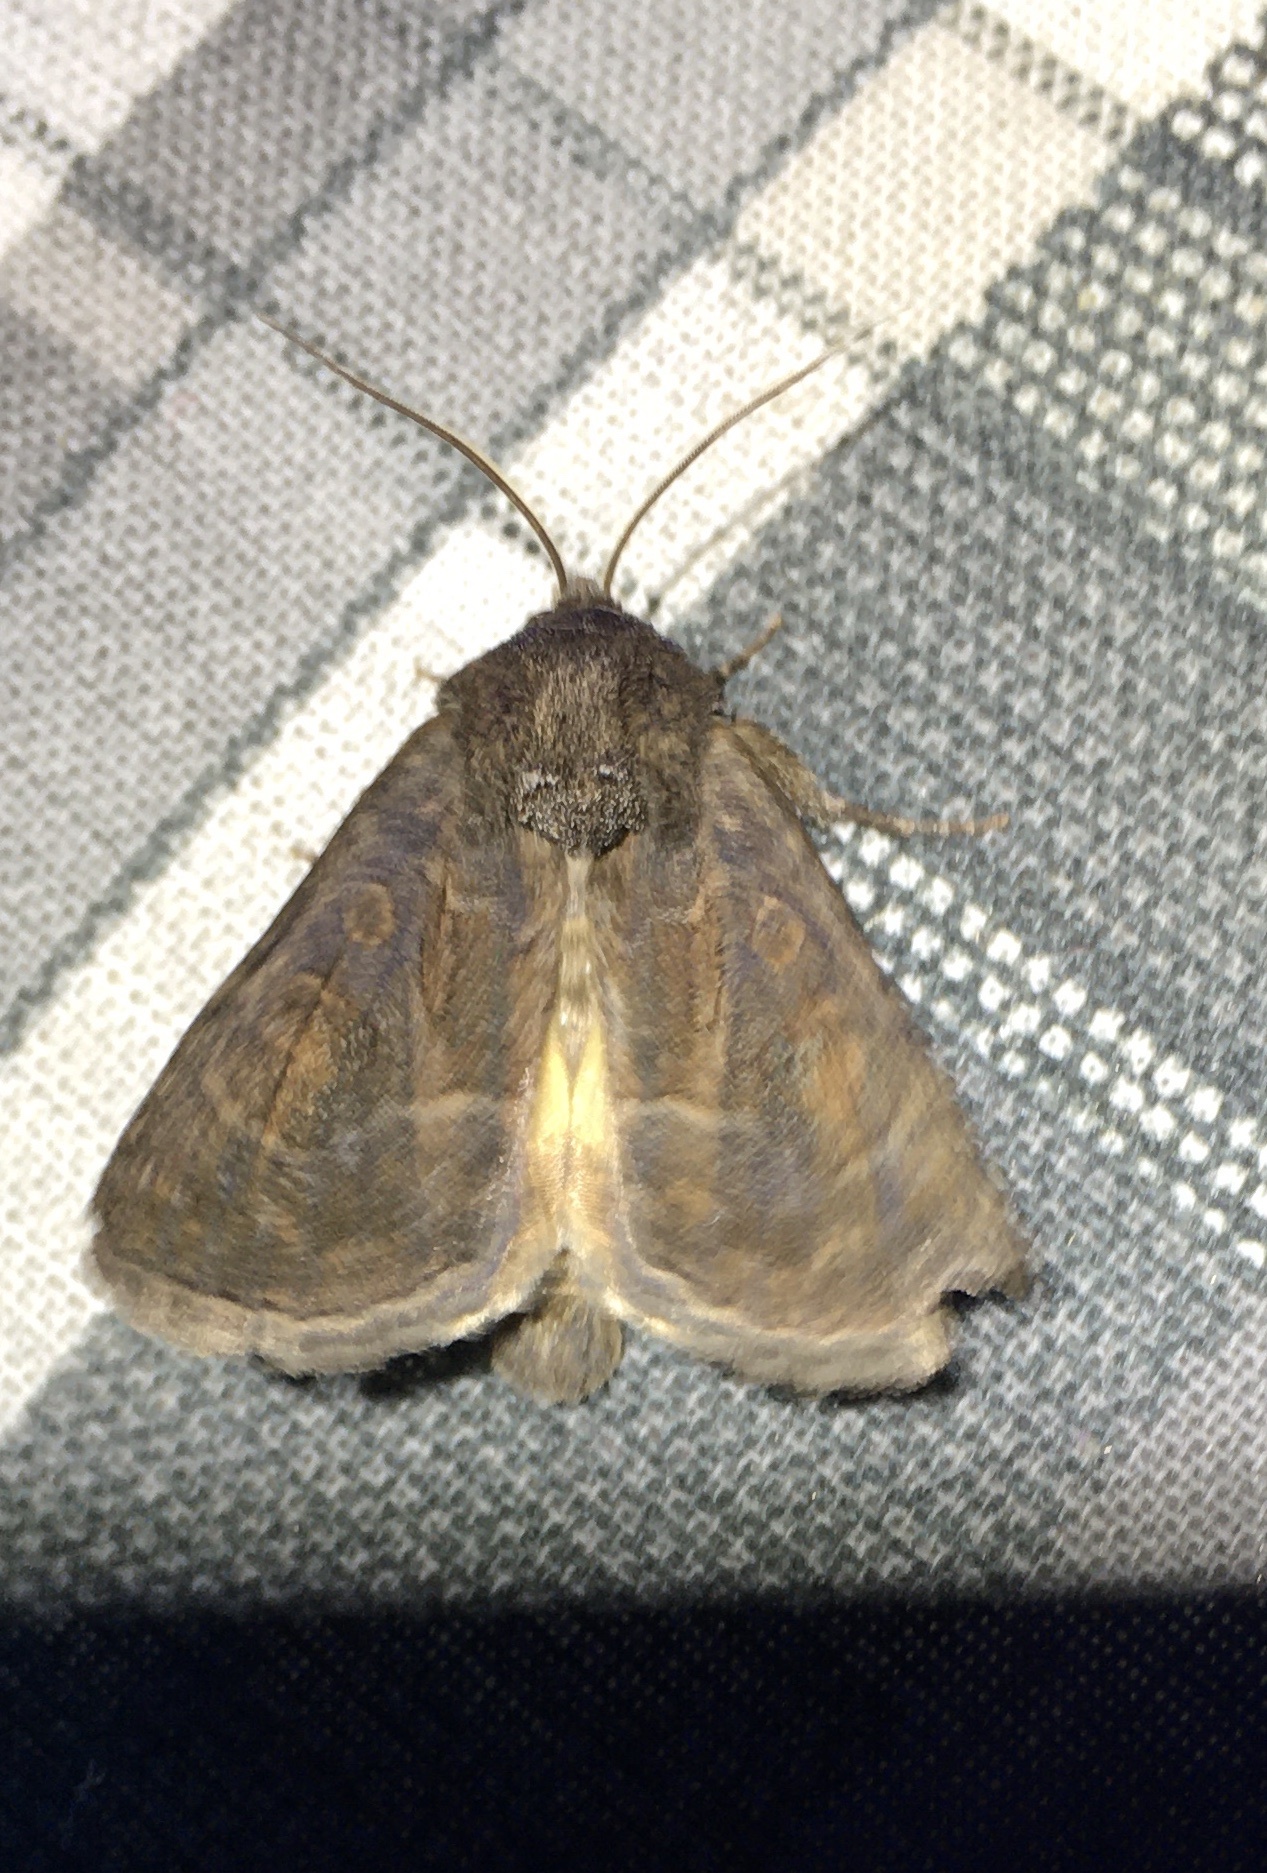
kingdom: Animalia
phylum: Arthropoda
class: Insecta
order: Lepidoptera
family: Noctuidae
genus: Thalpophila
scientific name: Thalpophila matura
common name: Straw underwing
